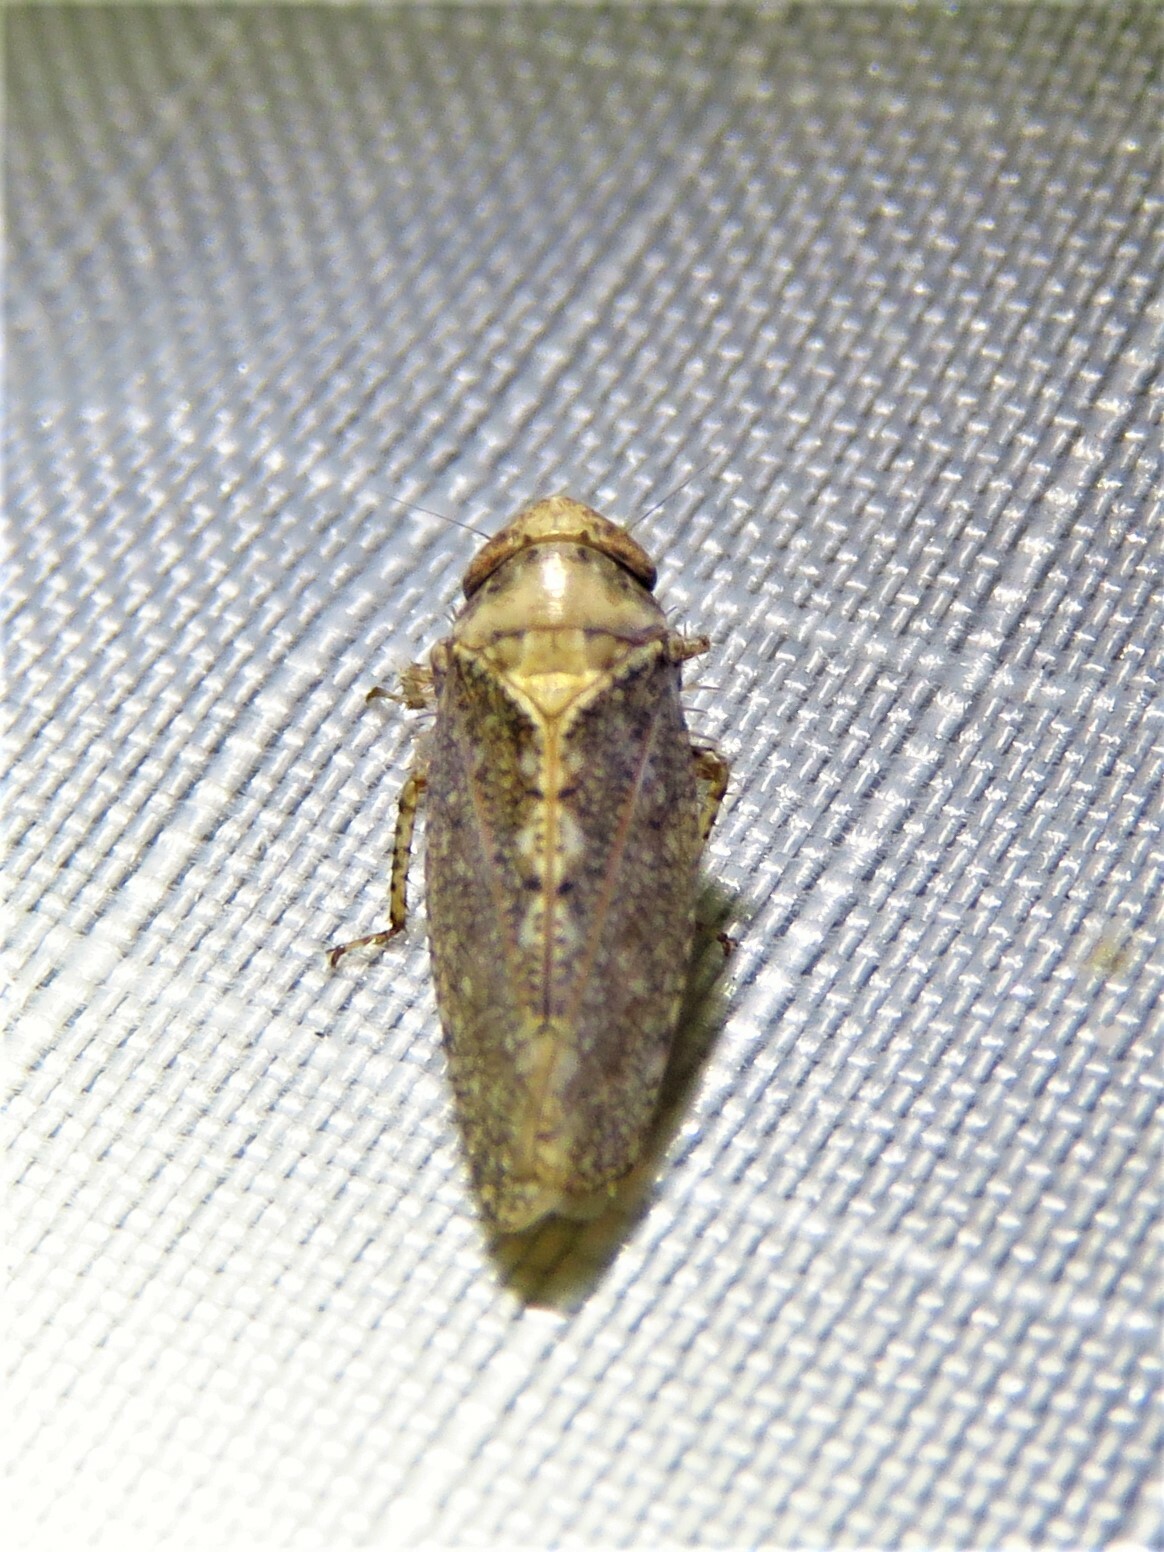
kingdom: Animalia
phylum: Arthropoda
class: Insecta
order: Hemiptera
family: Cicadellidae
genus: Excultanus
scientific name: Excultanus excultus
